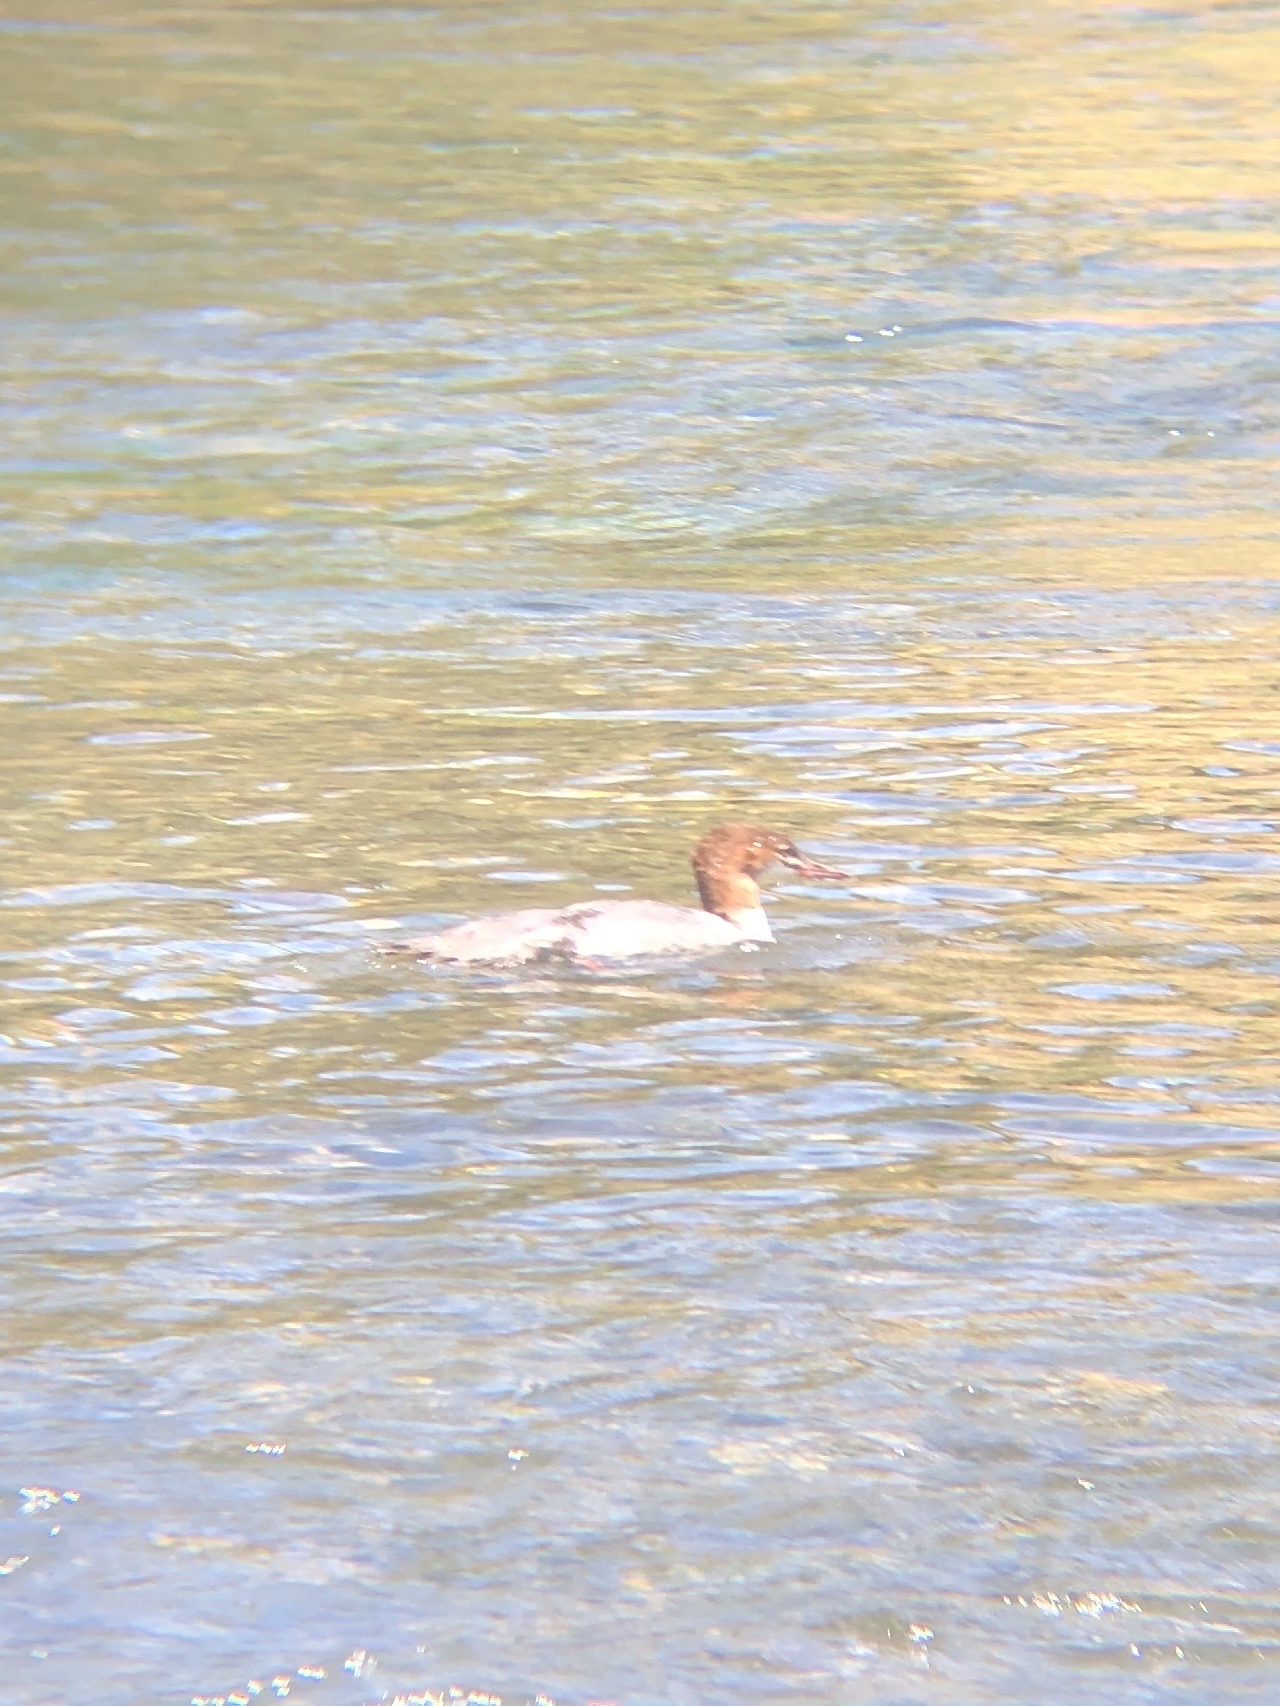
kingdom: Animalia
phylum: Chordata
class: Aves
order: Anseriformes
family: Anatidae
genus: Mergus
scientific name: Mergus merganser
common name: Common merganser
